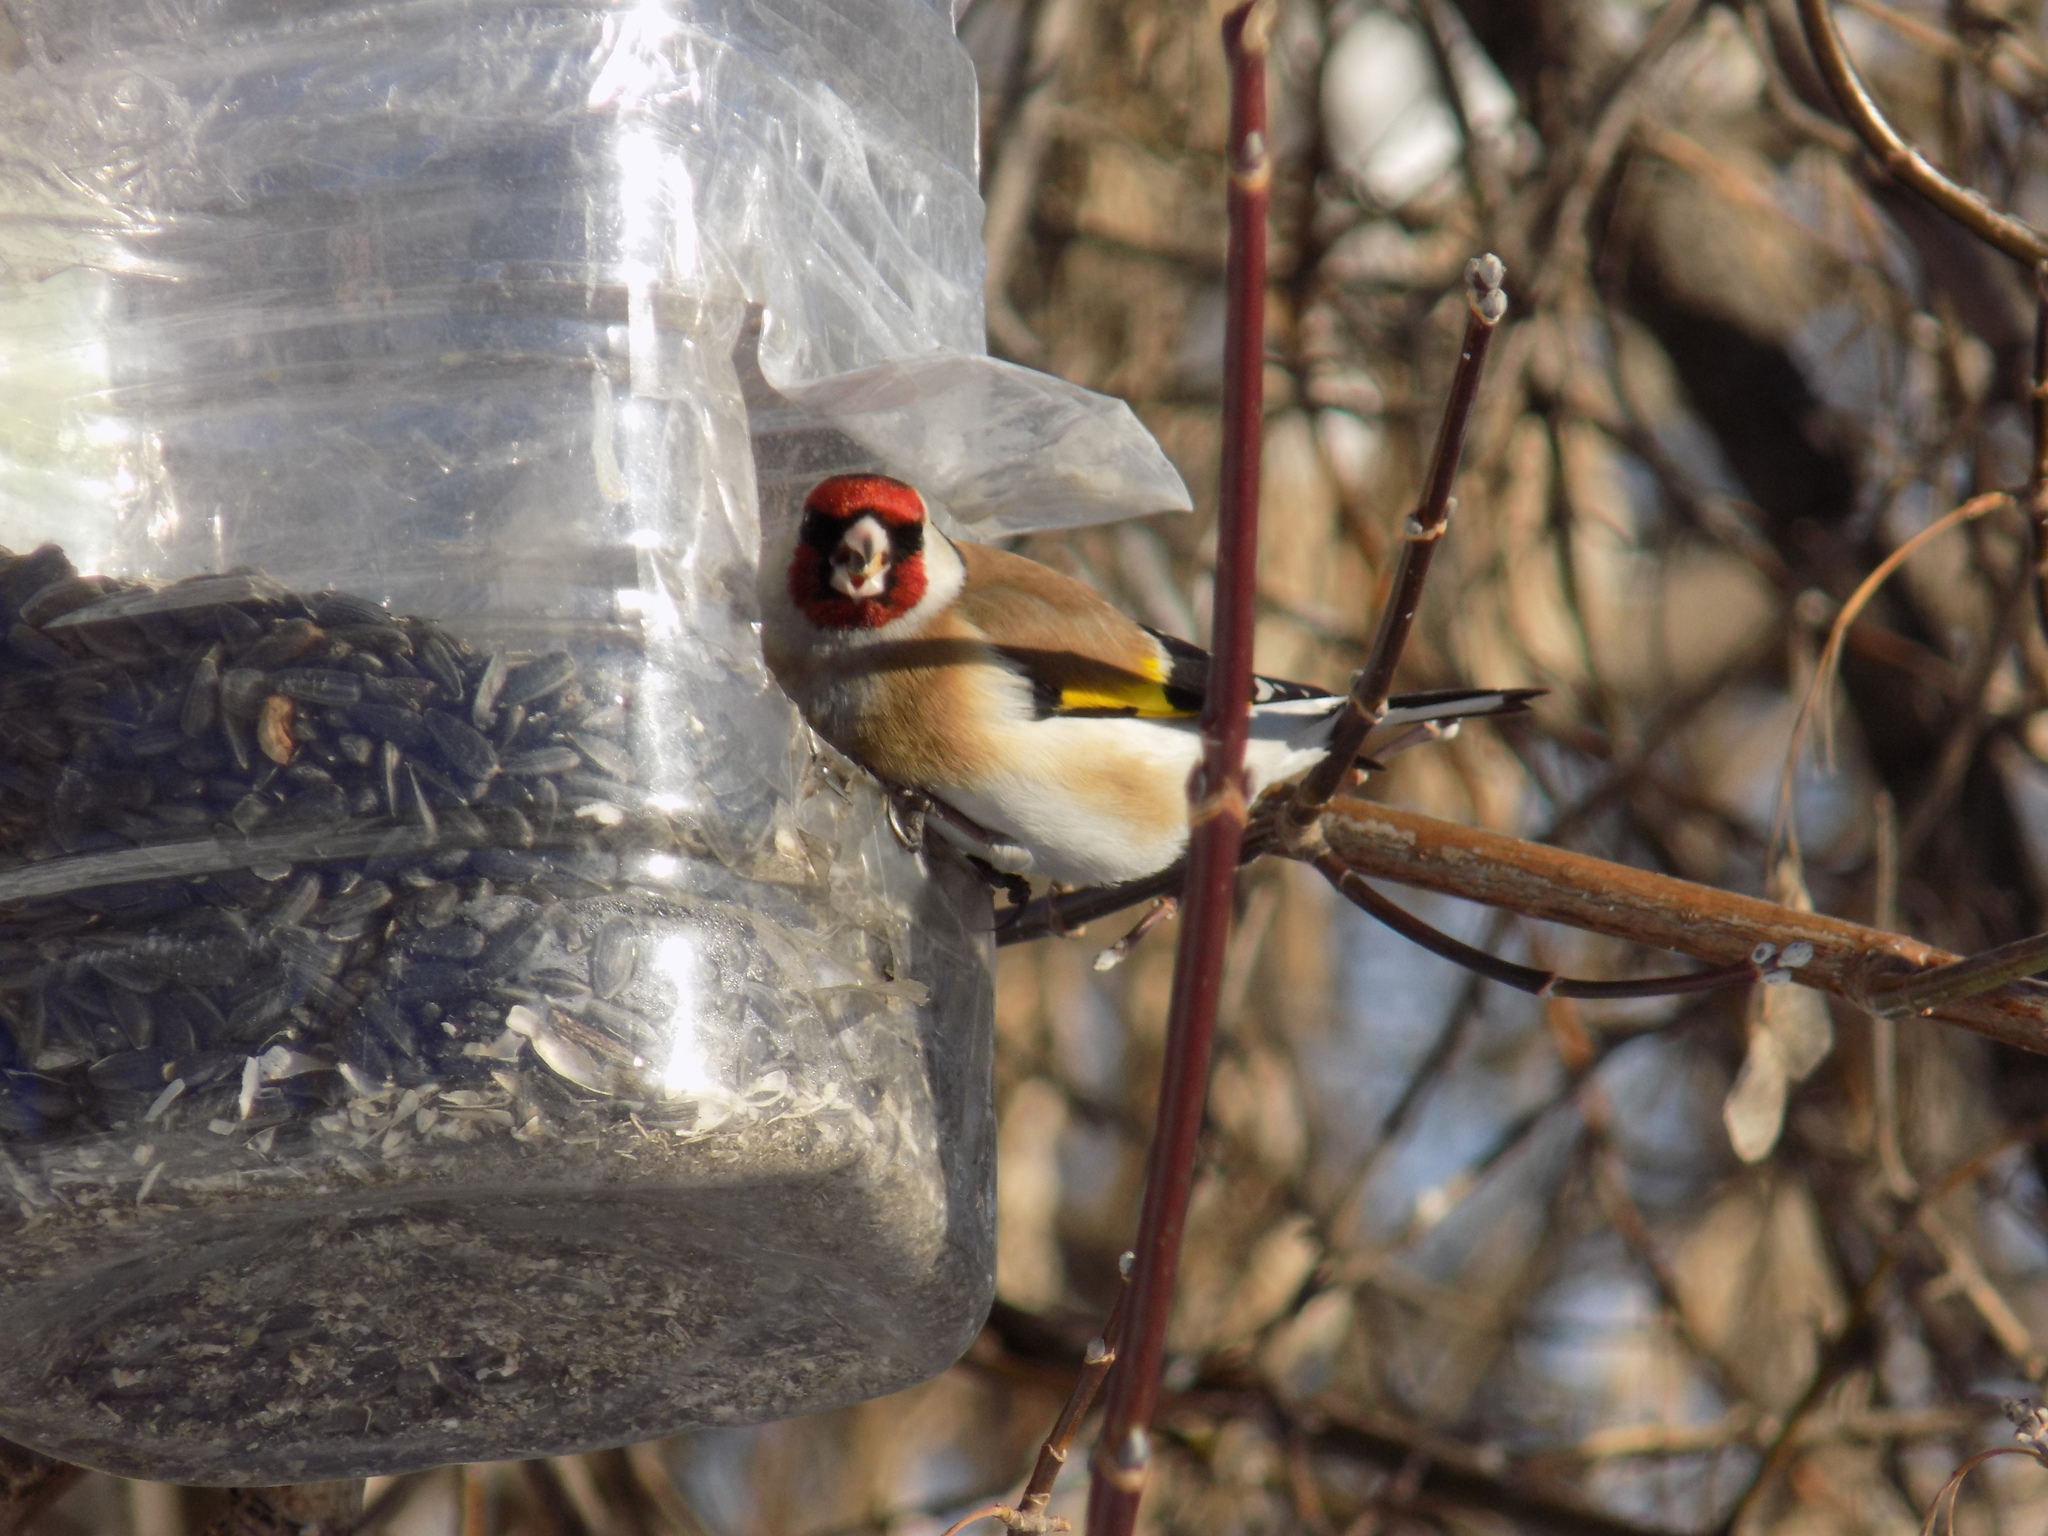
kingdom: Animalia
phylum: Chordata
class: Aves
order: Passeriformes
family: Fringillidae
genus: Carduelis
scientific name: Carduelis carduelis
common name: European goldfinch
